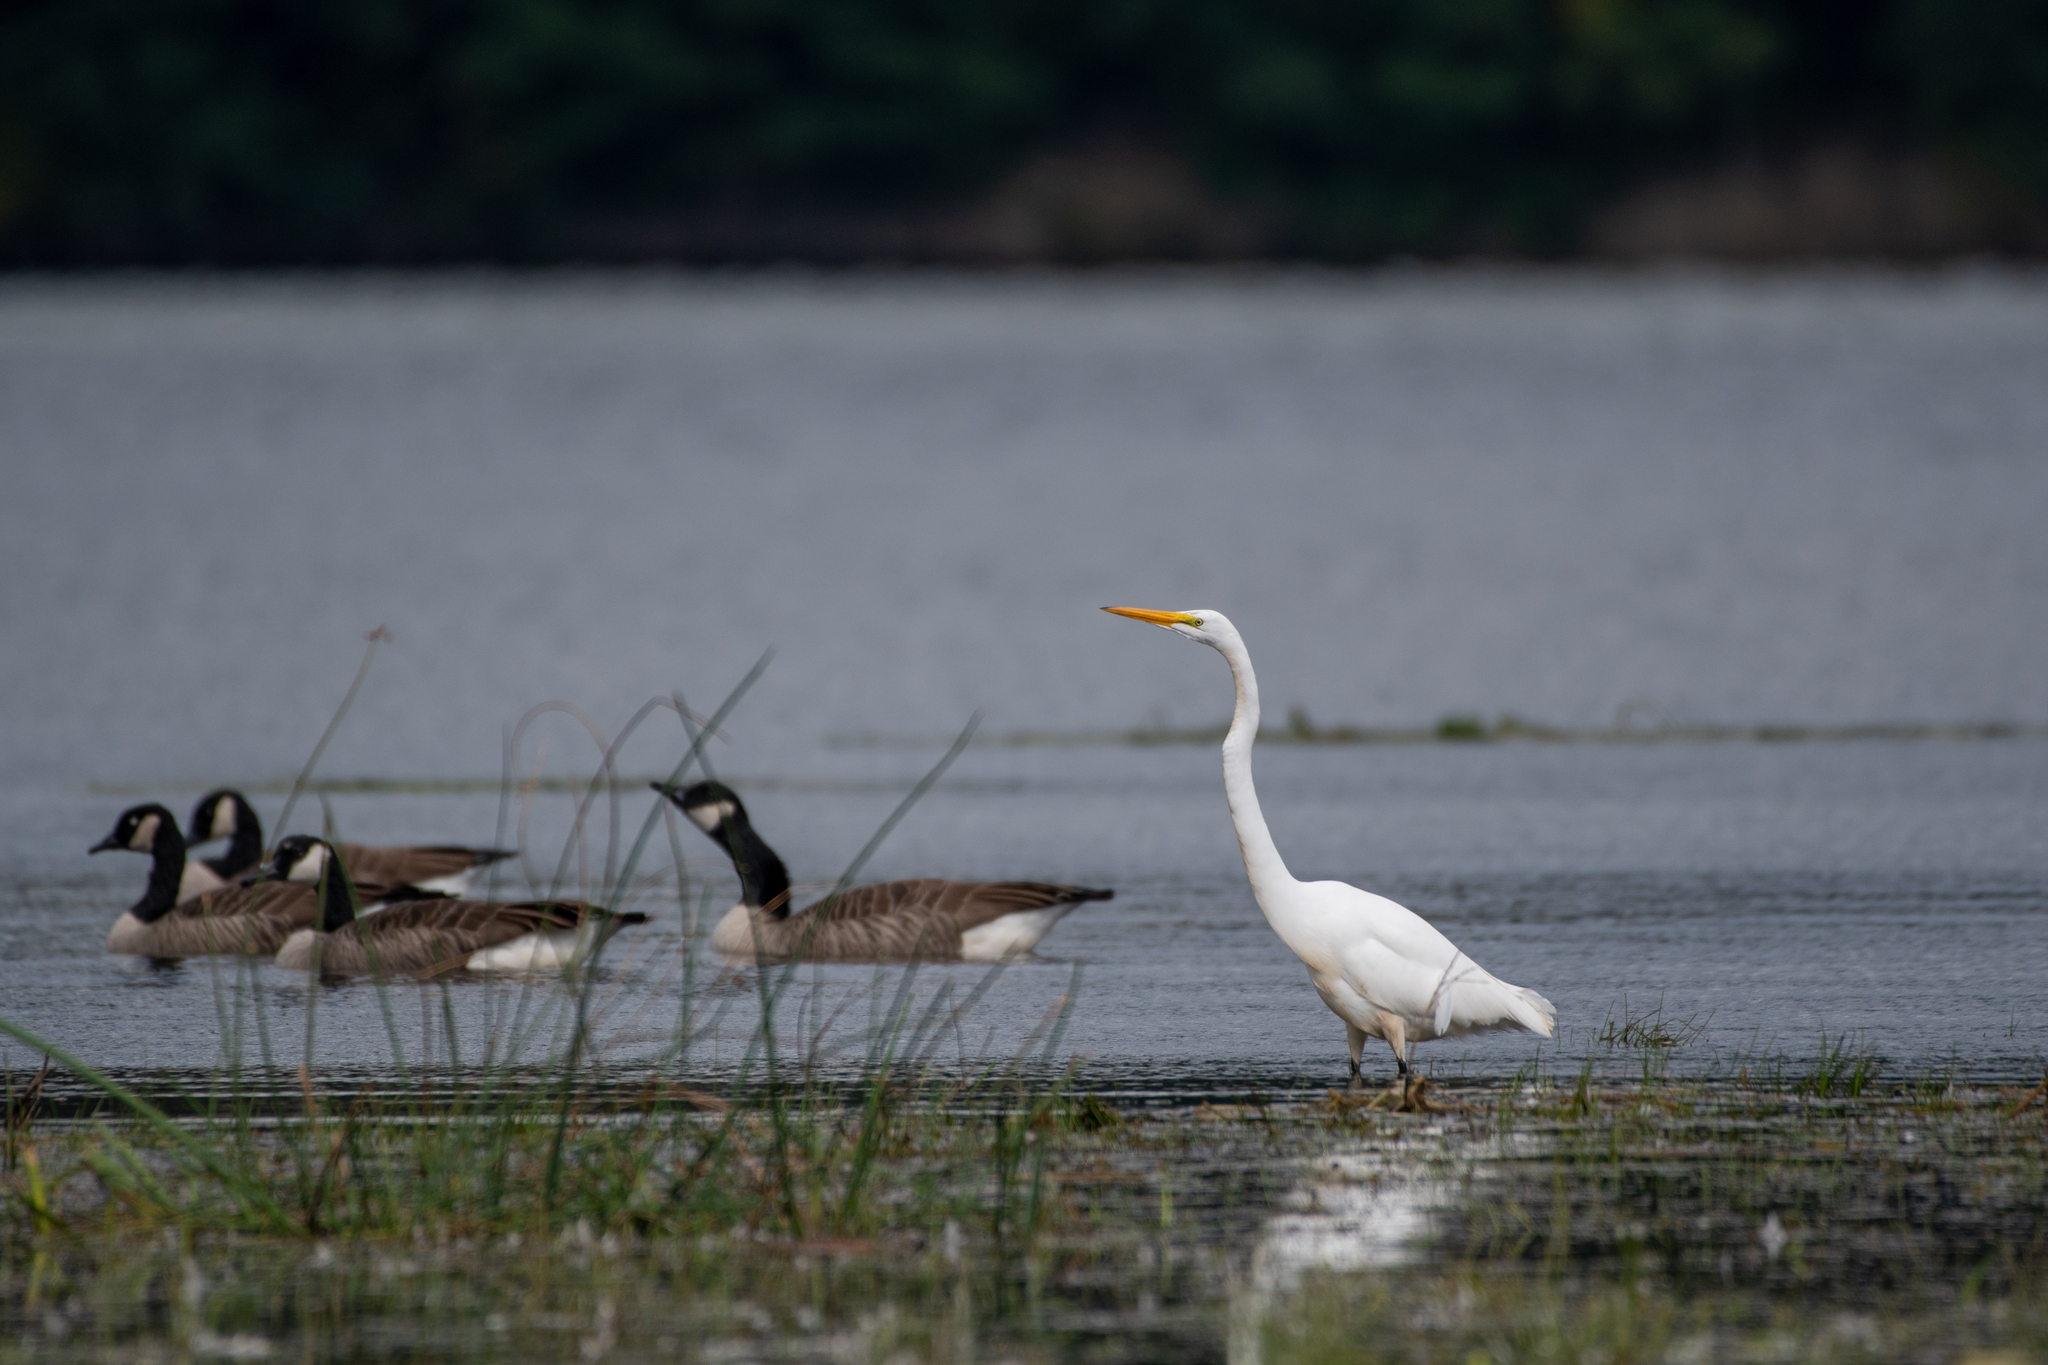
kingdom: Animalia
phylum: Chordata
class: Aves
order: Pelecaniformes
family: Ardeidae
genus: Ardea
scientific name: Ardea alba
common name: Great egret
